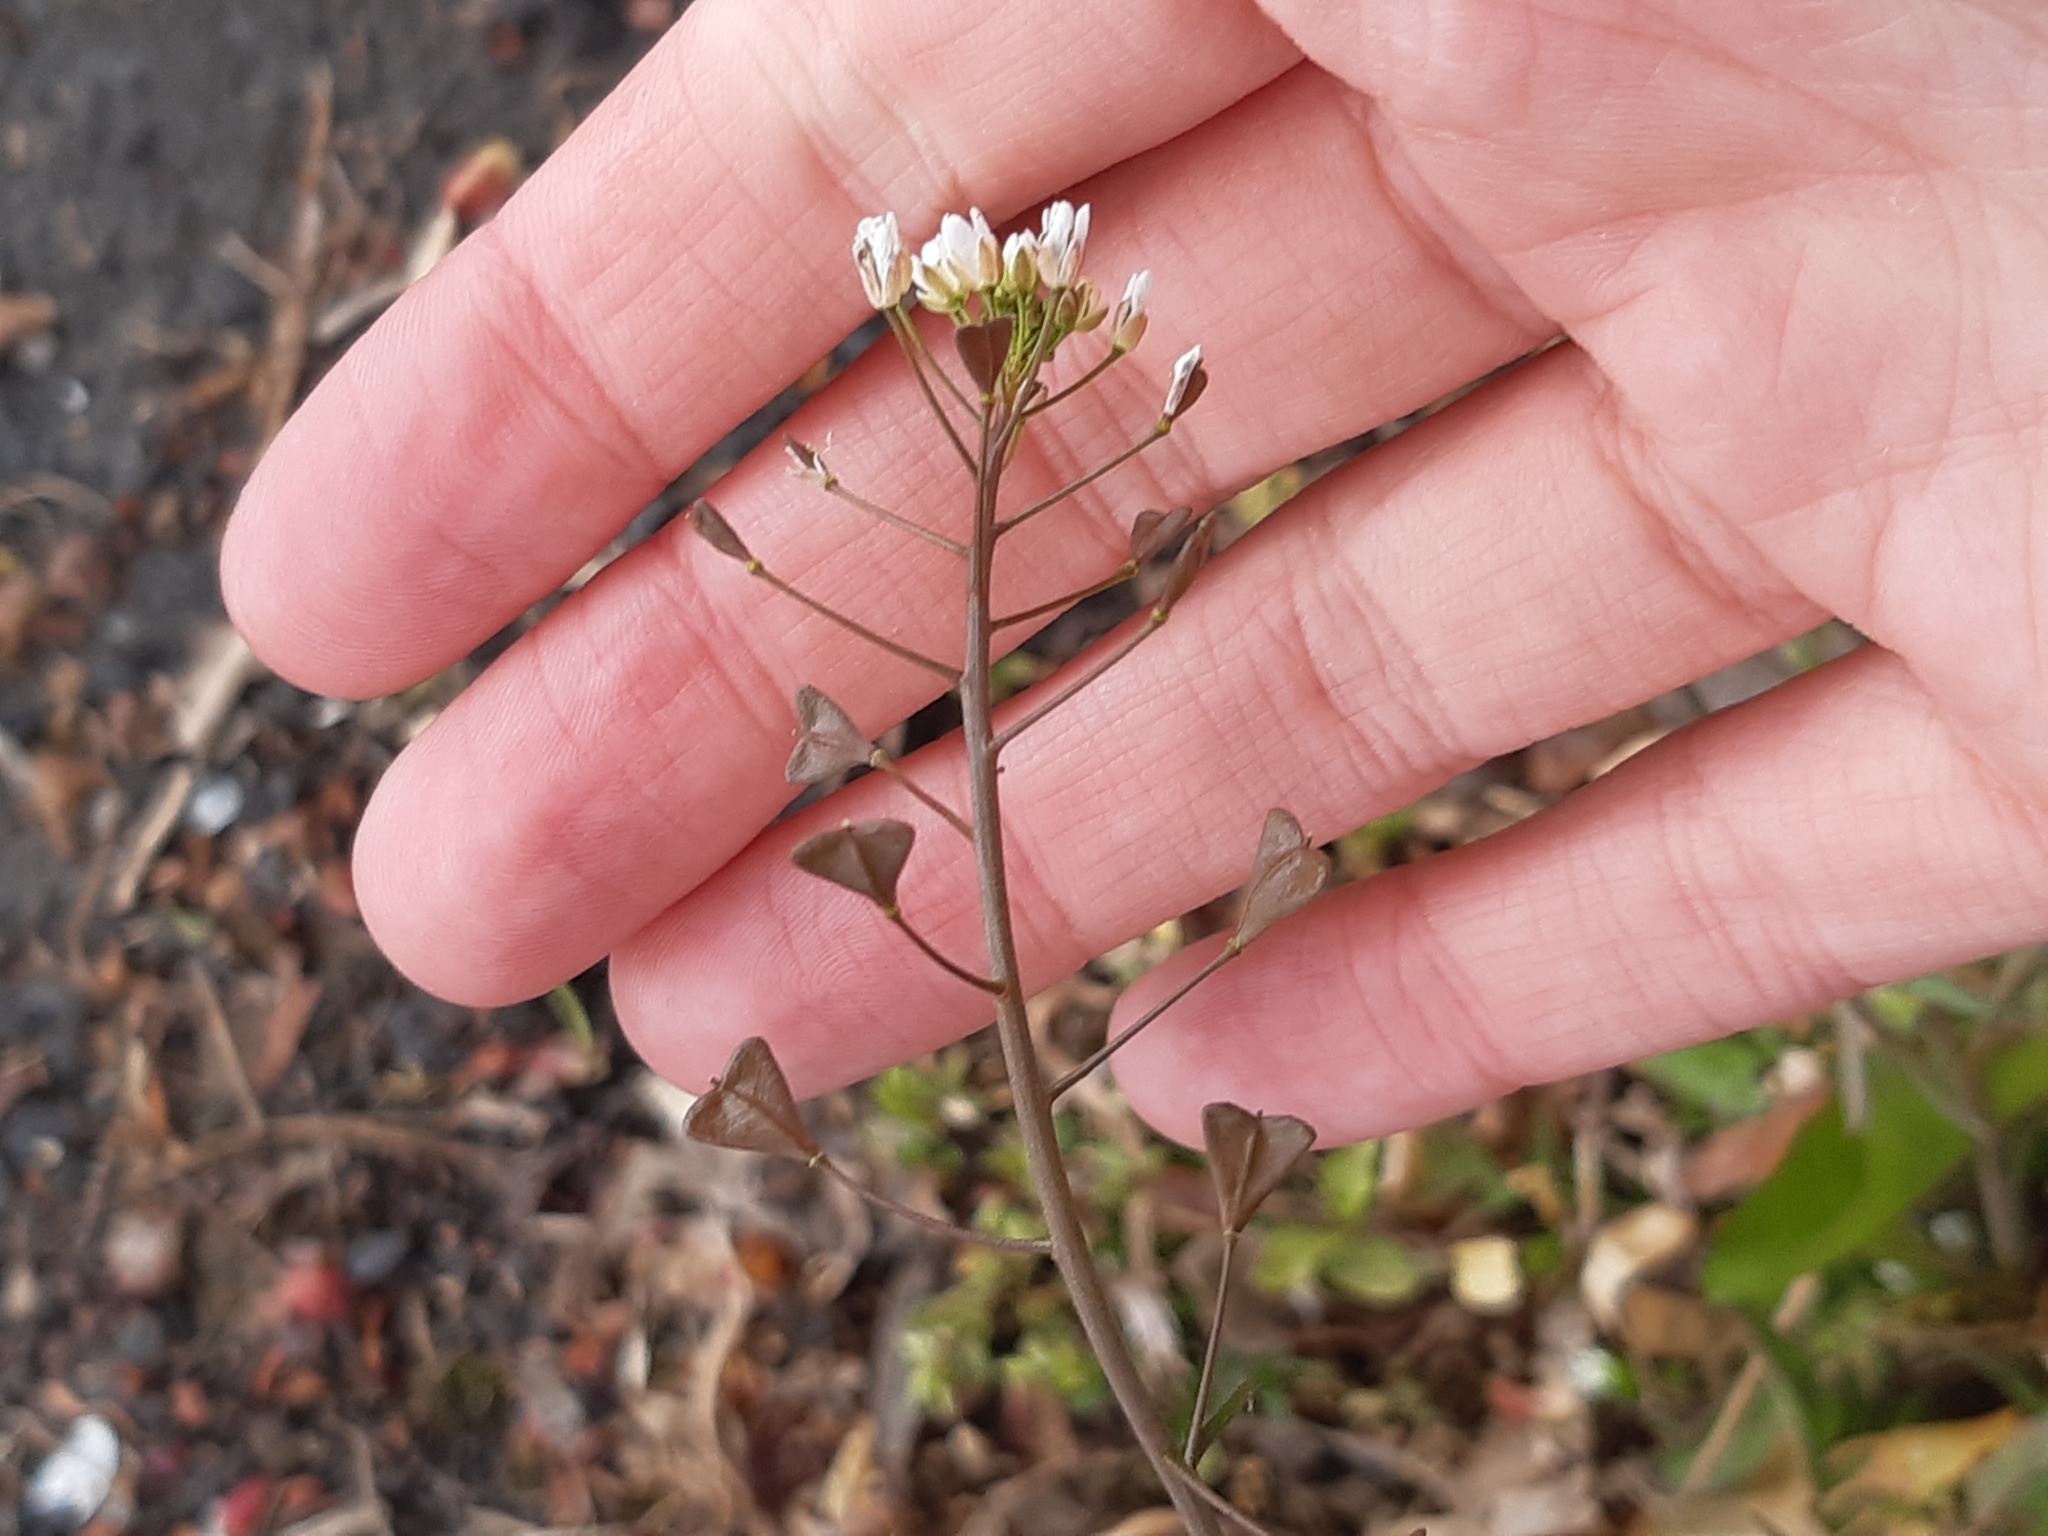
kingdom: Plantae
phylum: Tracheophyta
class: Magnoliopsida
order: Brassicales
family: Brassicaceae
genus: Capsella
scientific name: Capsella bursa-pastoris
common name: Shepherd's purse
